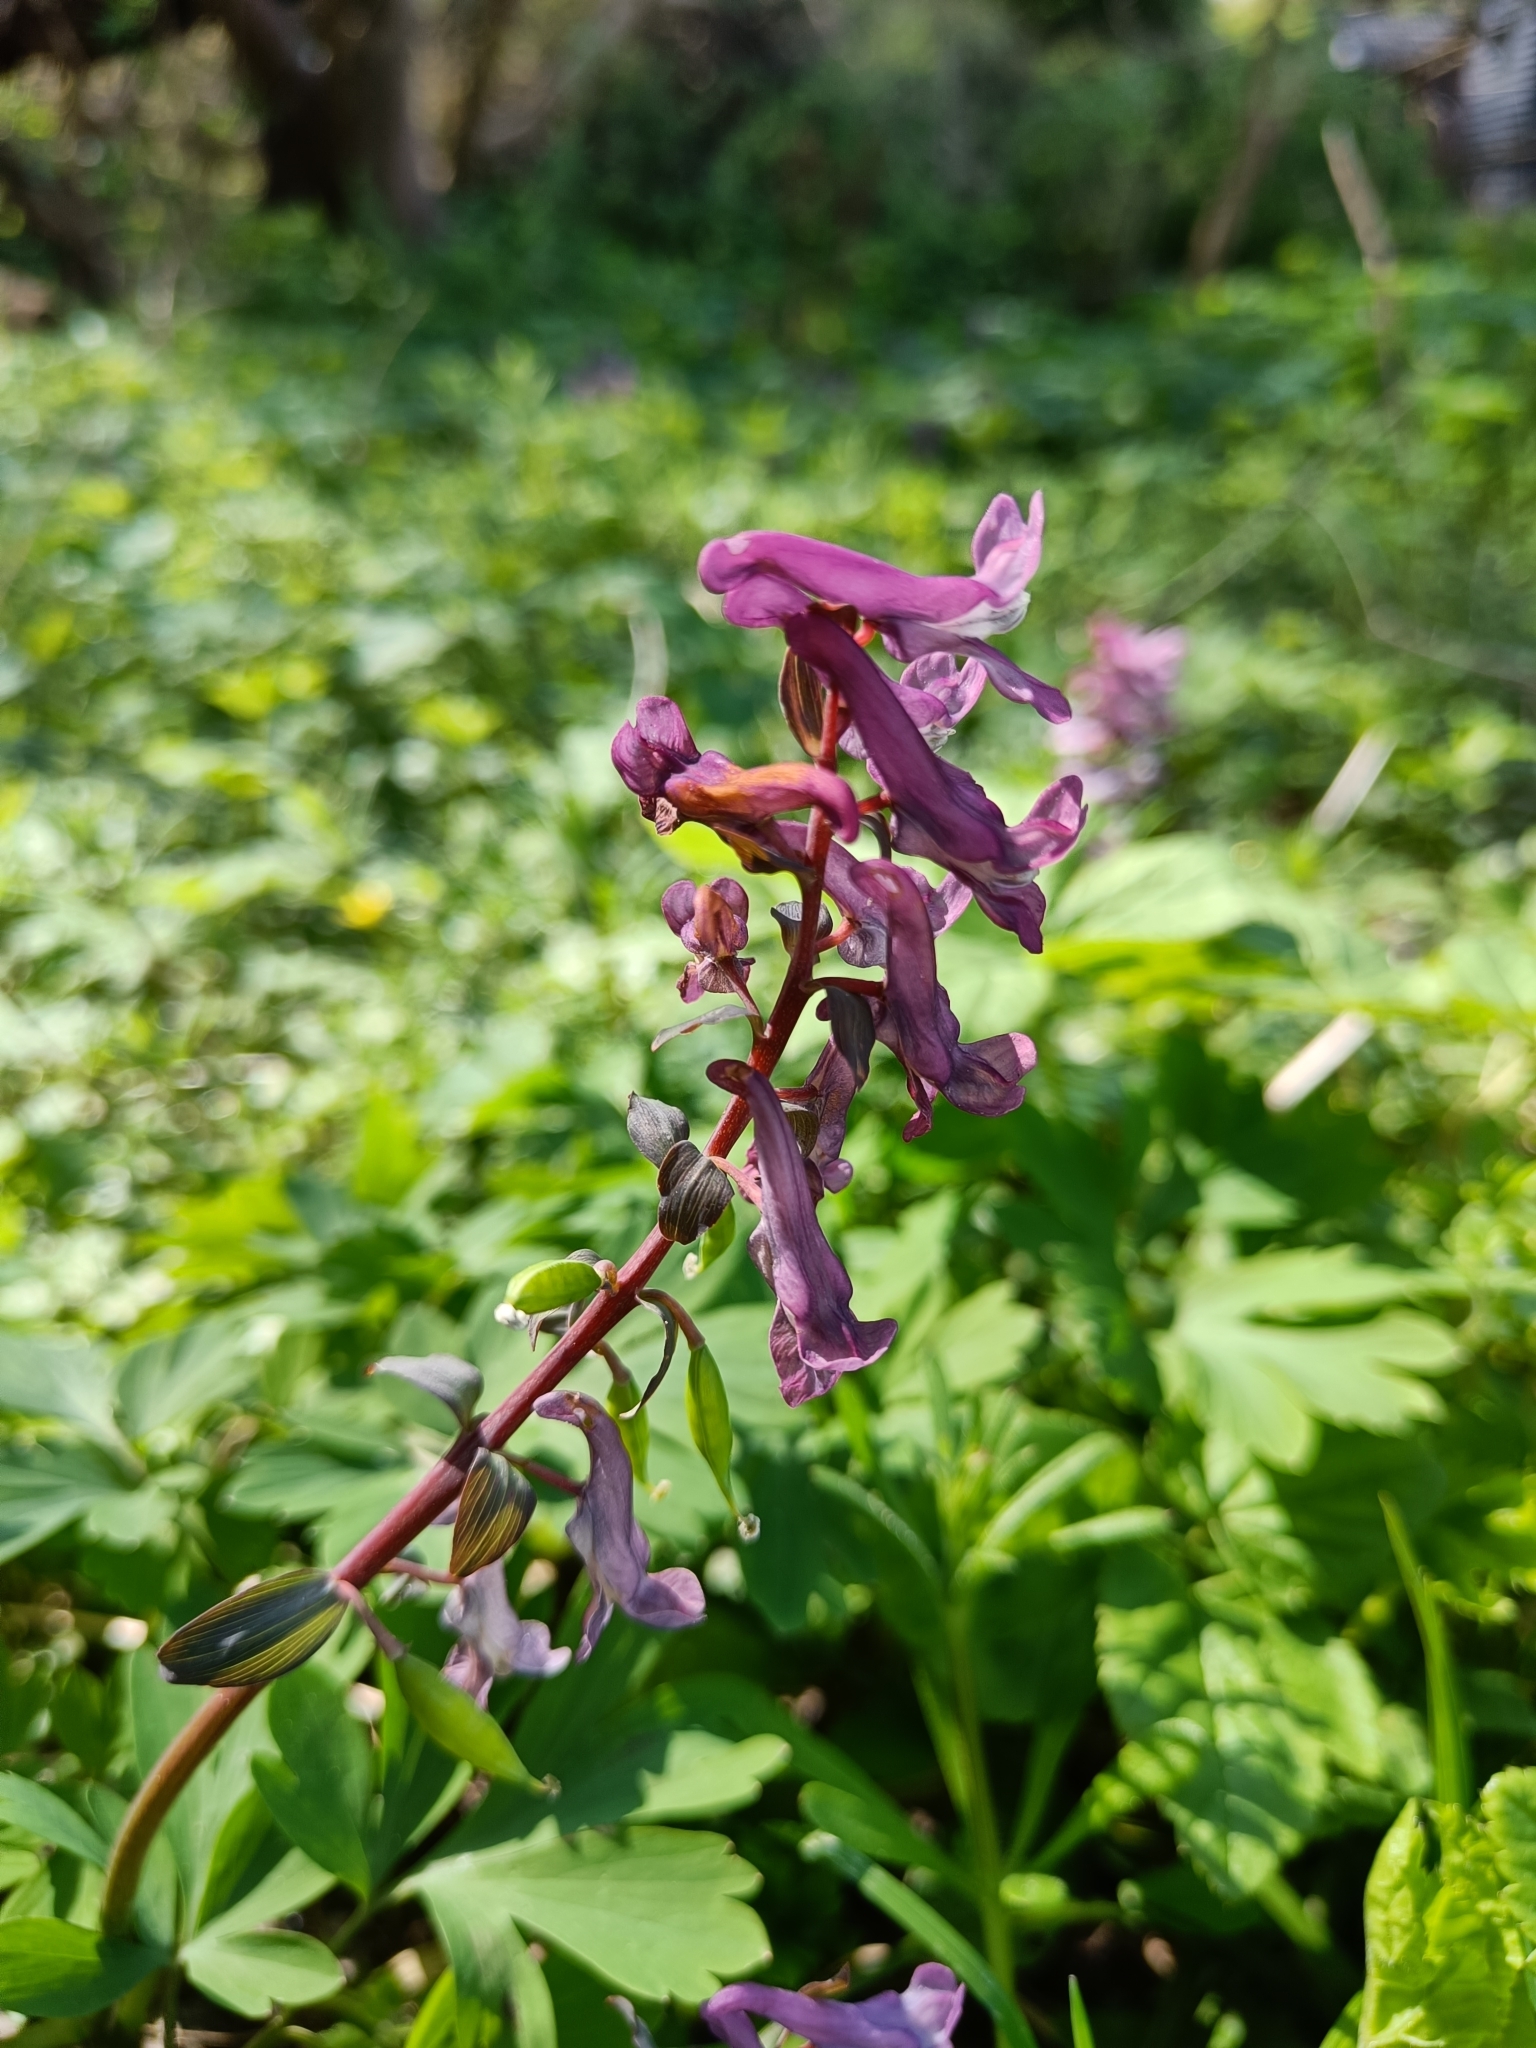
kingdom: Plantae
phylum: Tracheophyta
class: Magnoliopsida
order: Ranunculales
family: Papaveraceae
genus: Corydalis
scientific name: Corydalis cava
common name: Hollowroot
